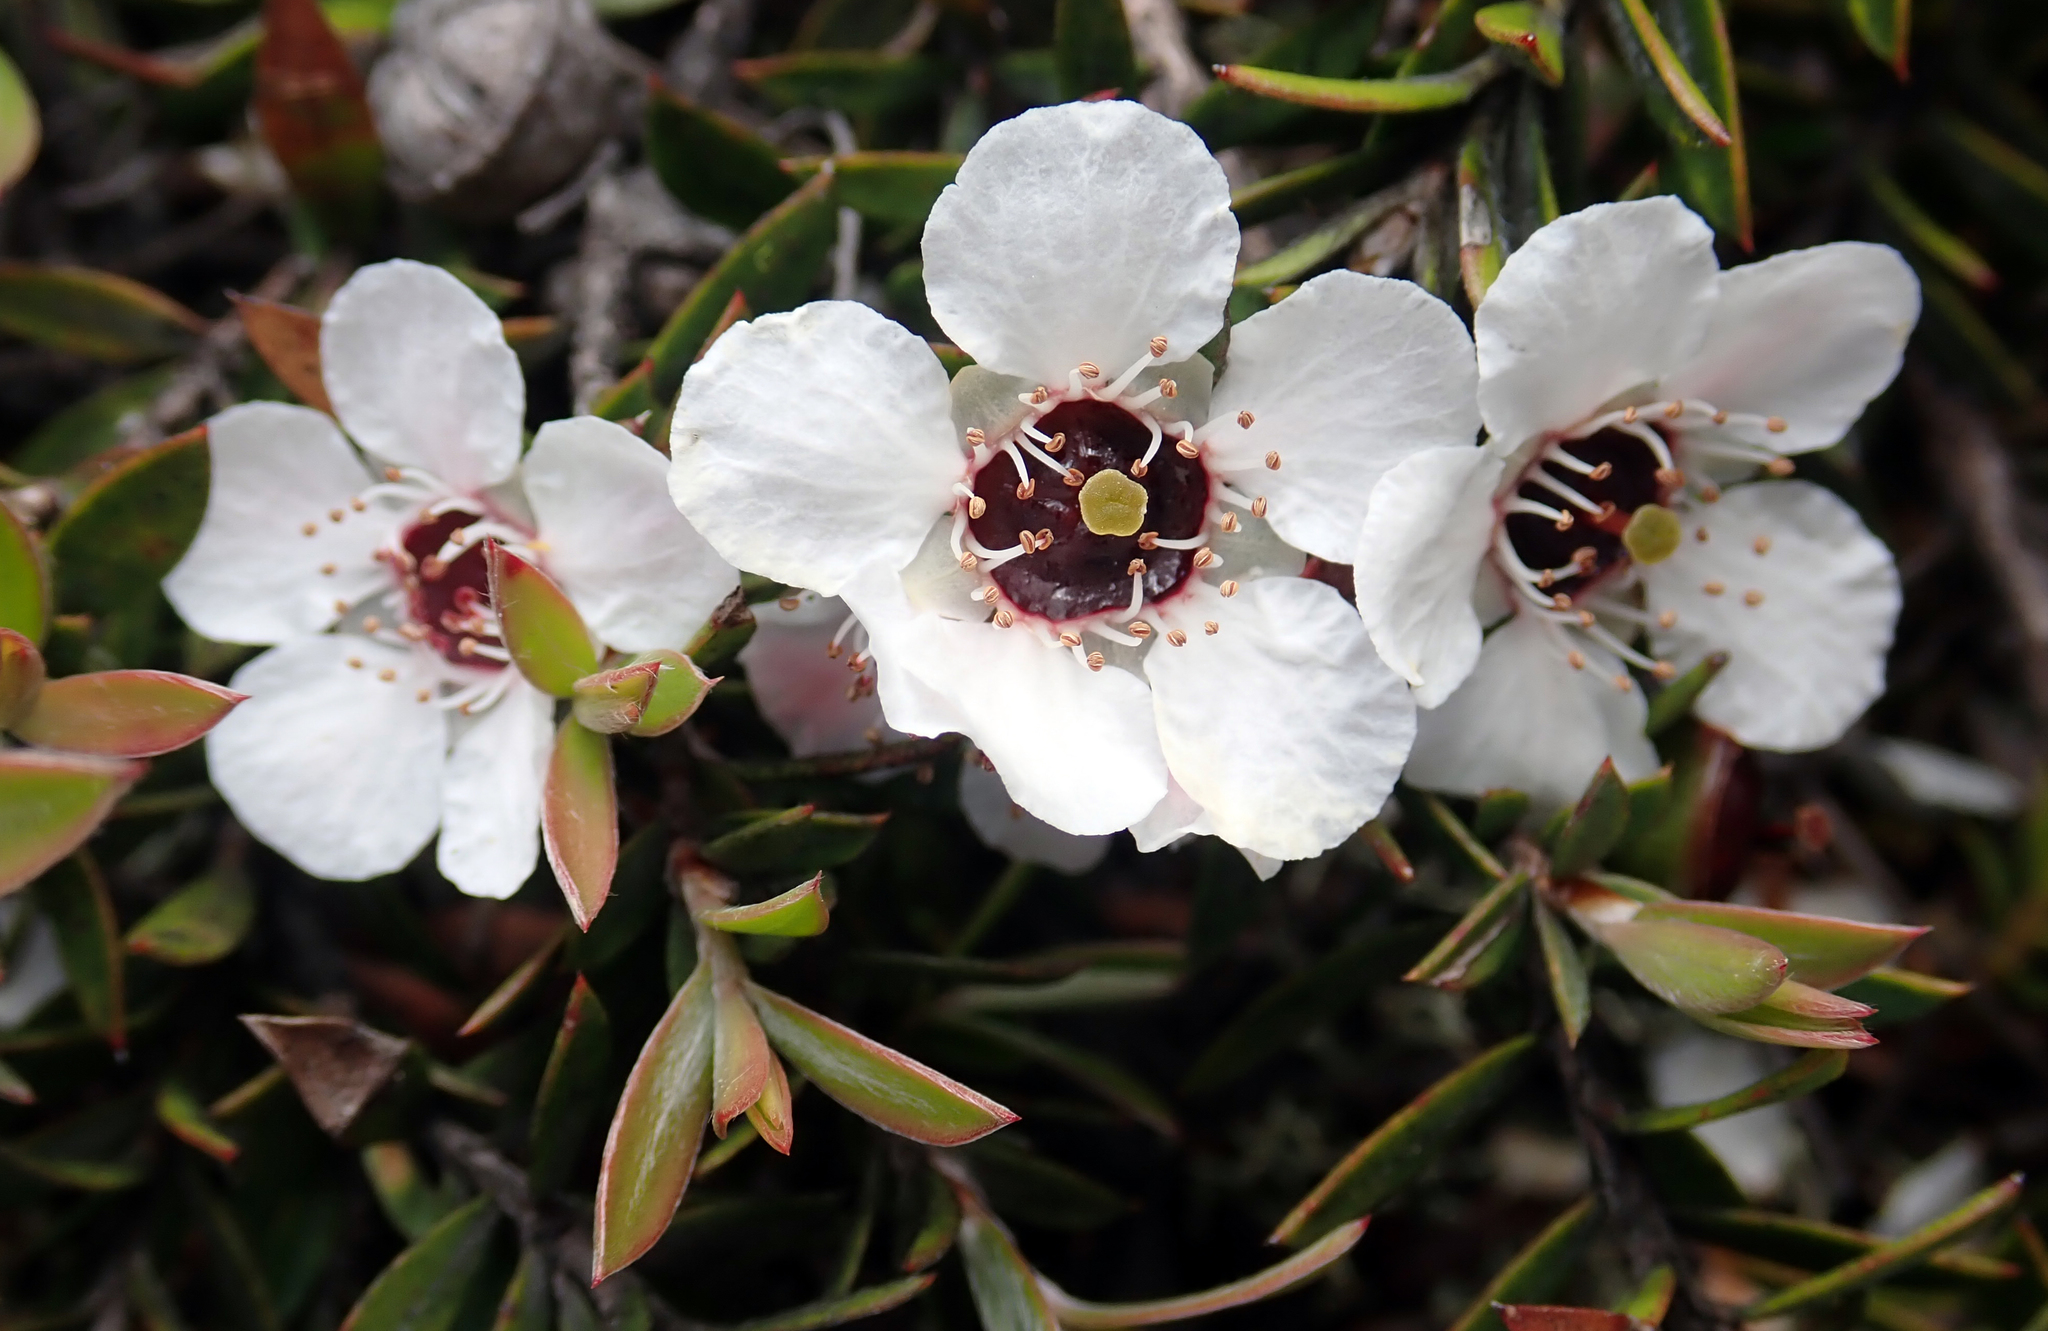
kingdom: Plantae
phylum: Tracheophyta
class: Magnoliopsida
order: Myrtales
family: Myrtaceae
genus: Leptospermum
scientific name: Leptospermum scoparium
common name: Broom tea-tree
